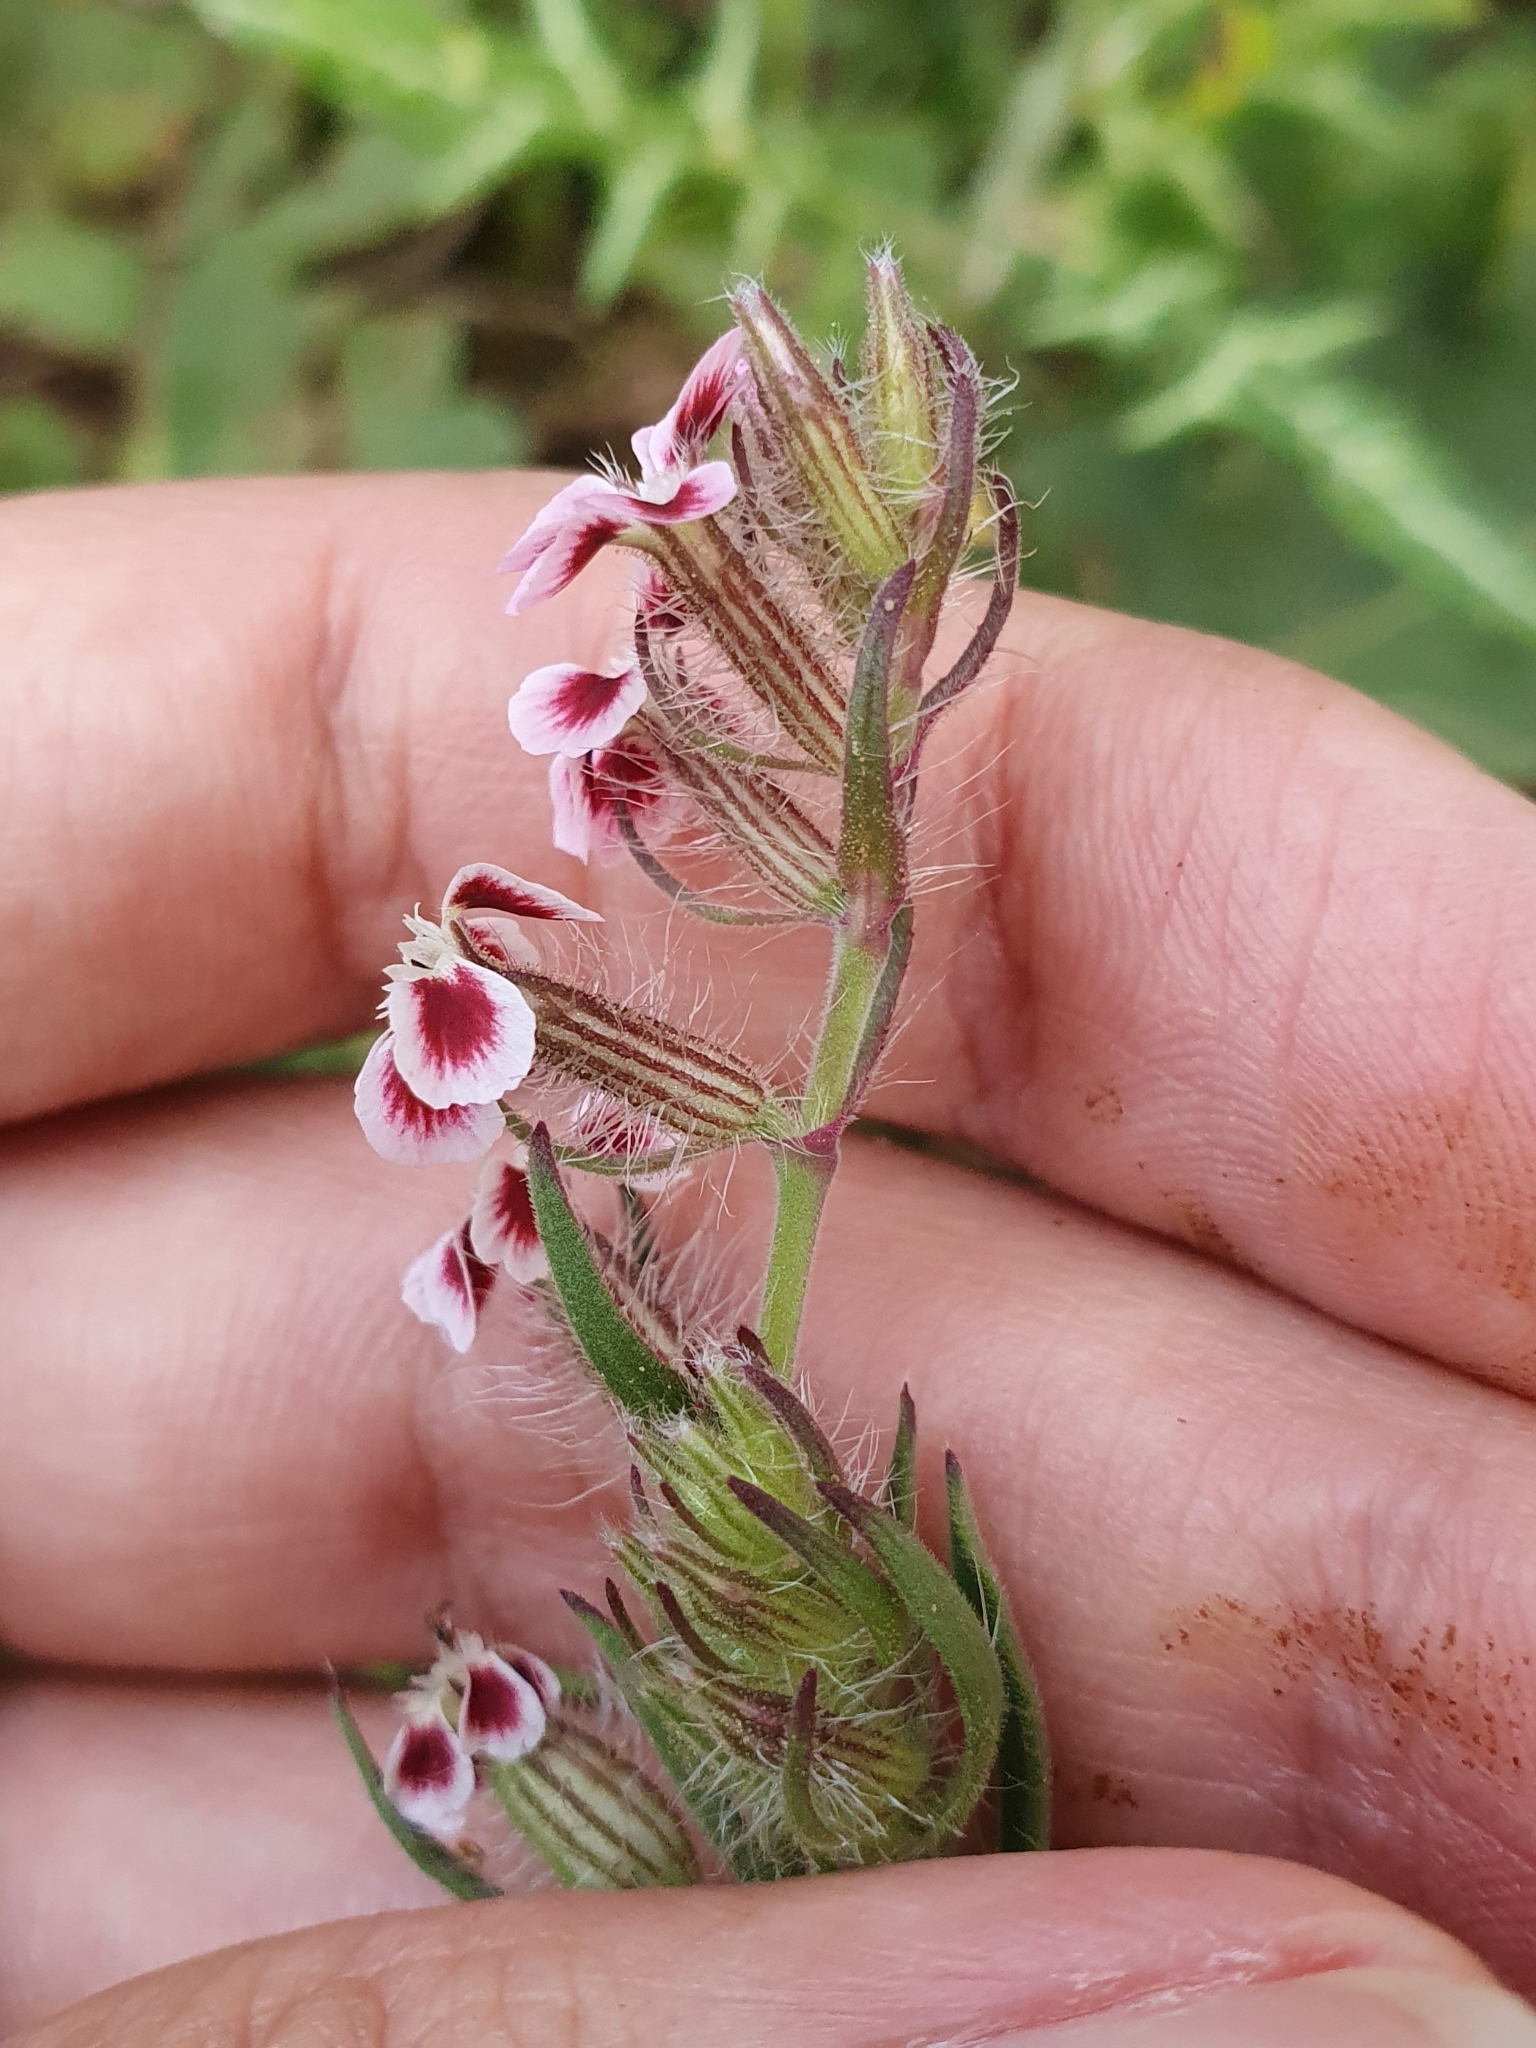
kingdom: Plantae
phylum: Tracheophyta
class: Magnoliopsida
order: Caryophyllales
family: Caryophyllaceae
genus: Silene
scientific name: Silene gallica
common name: Small-flowered catchfly
